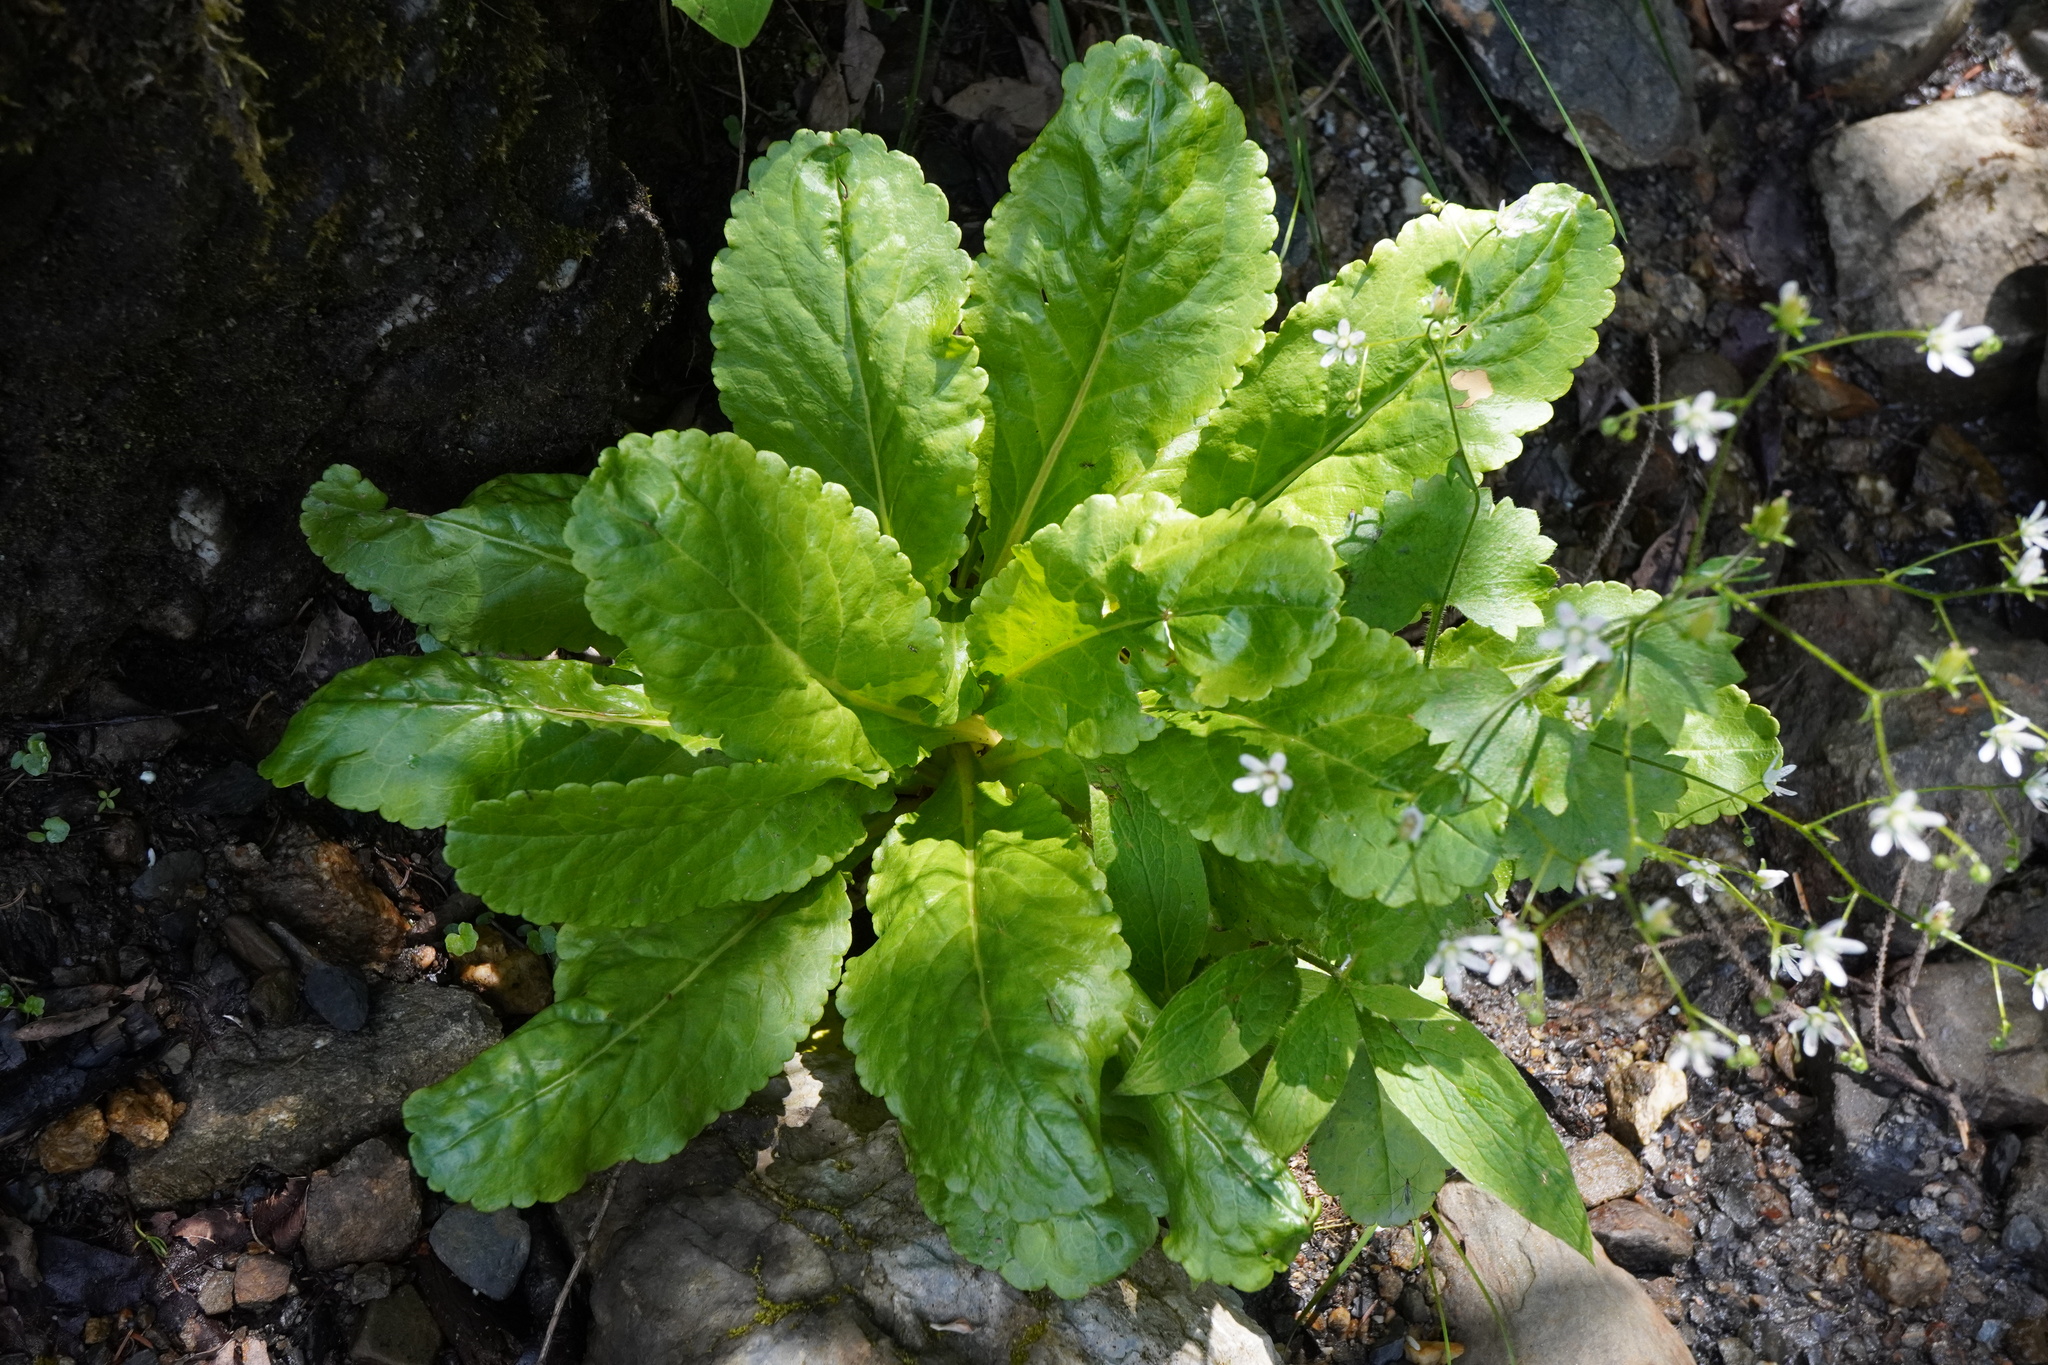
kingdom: Plantae
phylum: Tracheophyta
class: Magnoliopsida
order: Lamiales
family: Plantaginaceae
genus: Wulfenia
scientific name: Wulfenia carinthiaca
